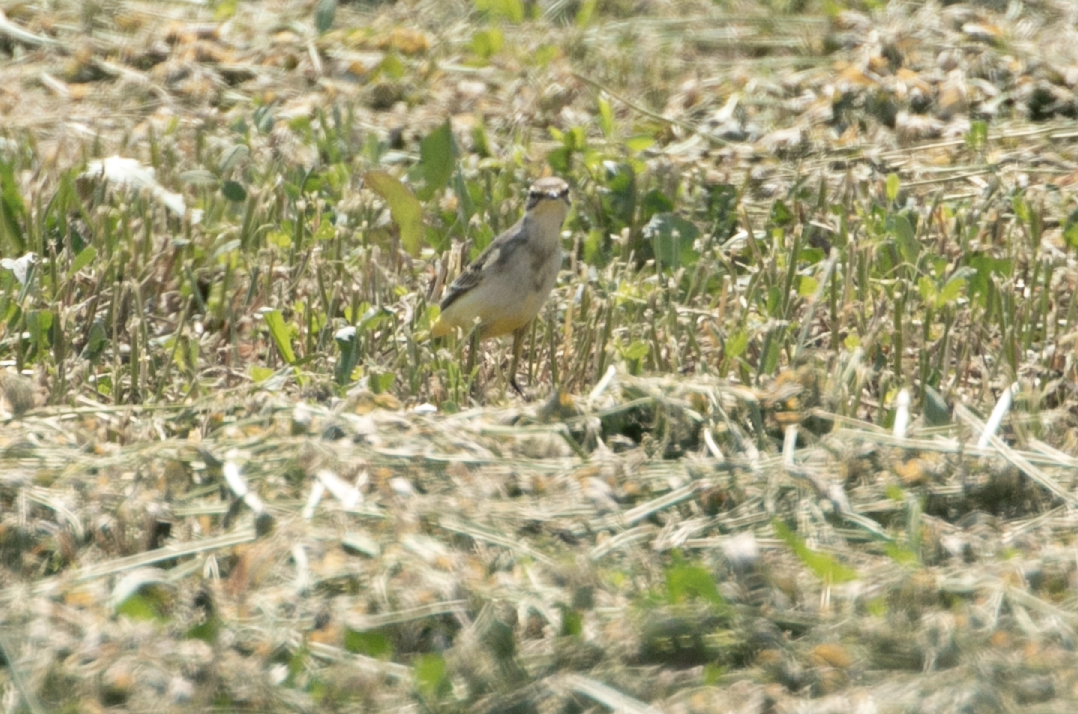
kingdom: Animalia
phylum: Chordata
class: Aves
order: Passeriformes
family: Motacillidae
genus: Motacilla
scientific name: Motacilla flava
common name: Western yellow wagtail
